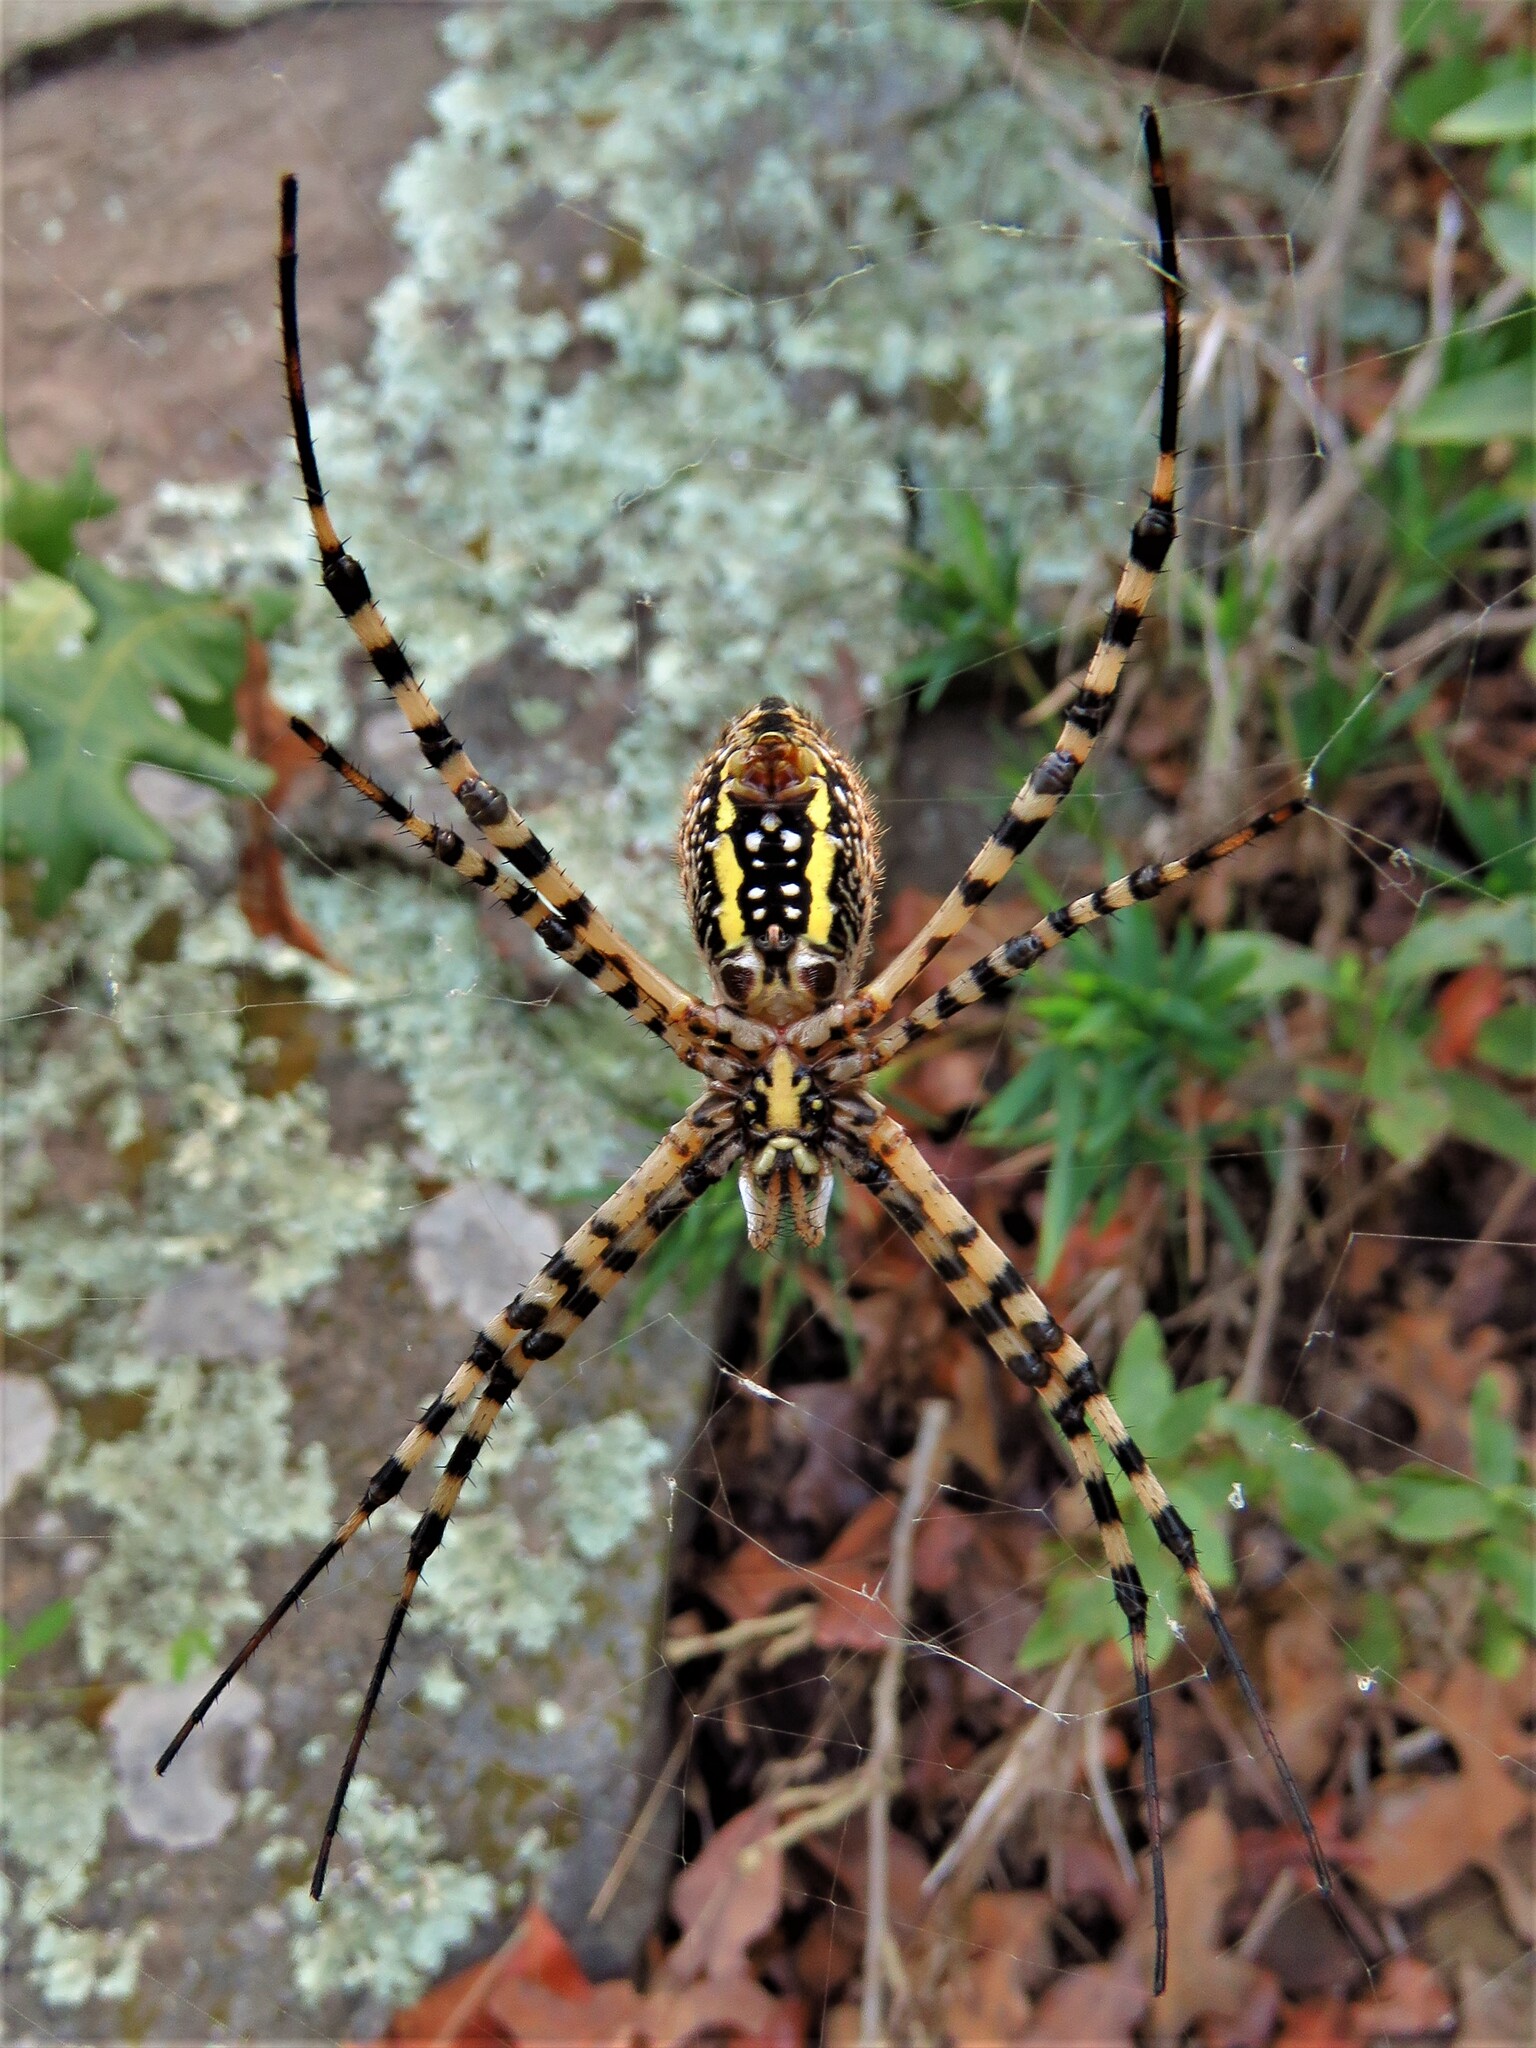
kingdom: Animalia
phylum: Arthropoda
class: Arachnida
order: Araneae
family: Araneidae
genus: Argiope
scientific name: Argiope trifasciata
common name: Banded garden spider
